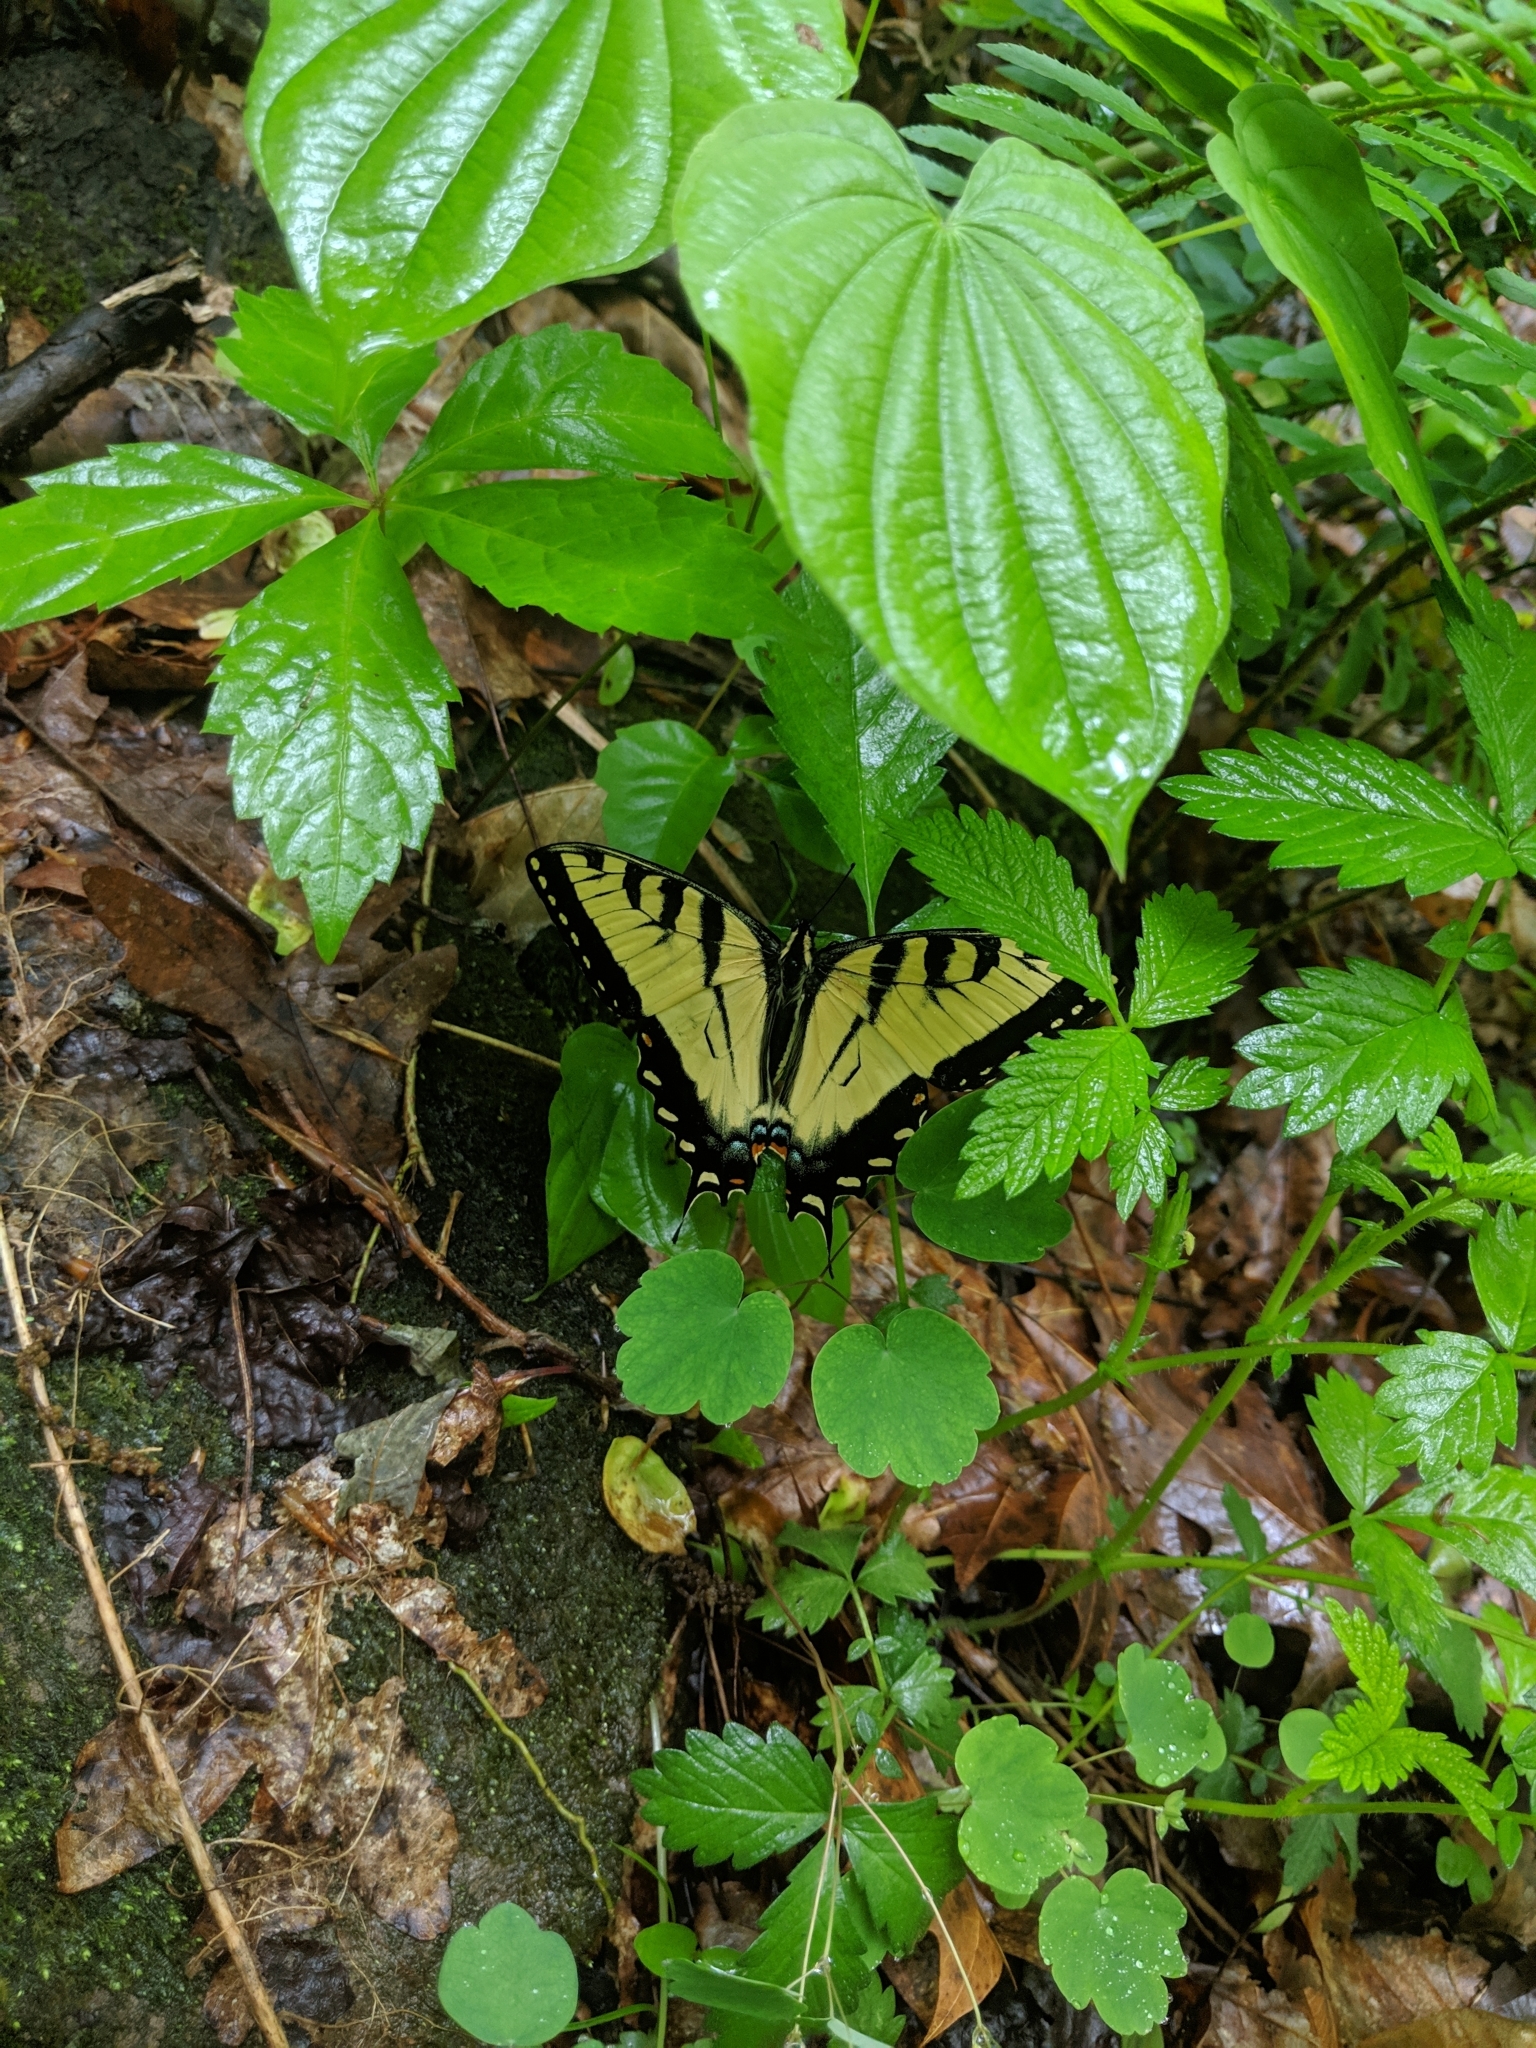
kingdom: Animalia
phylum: Arthropoda
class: Insecta
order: Lepidoptera
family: Papilionidae
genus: Papilio
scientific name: Papilio glaucus
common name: Tiger swallowtail
